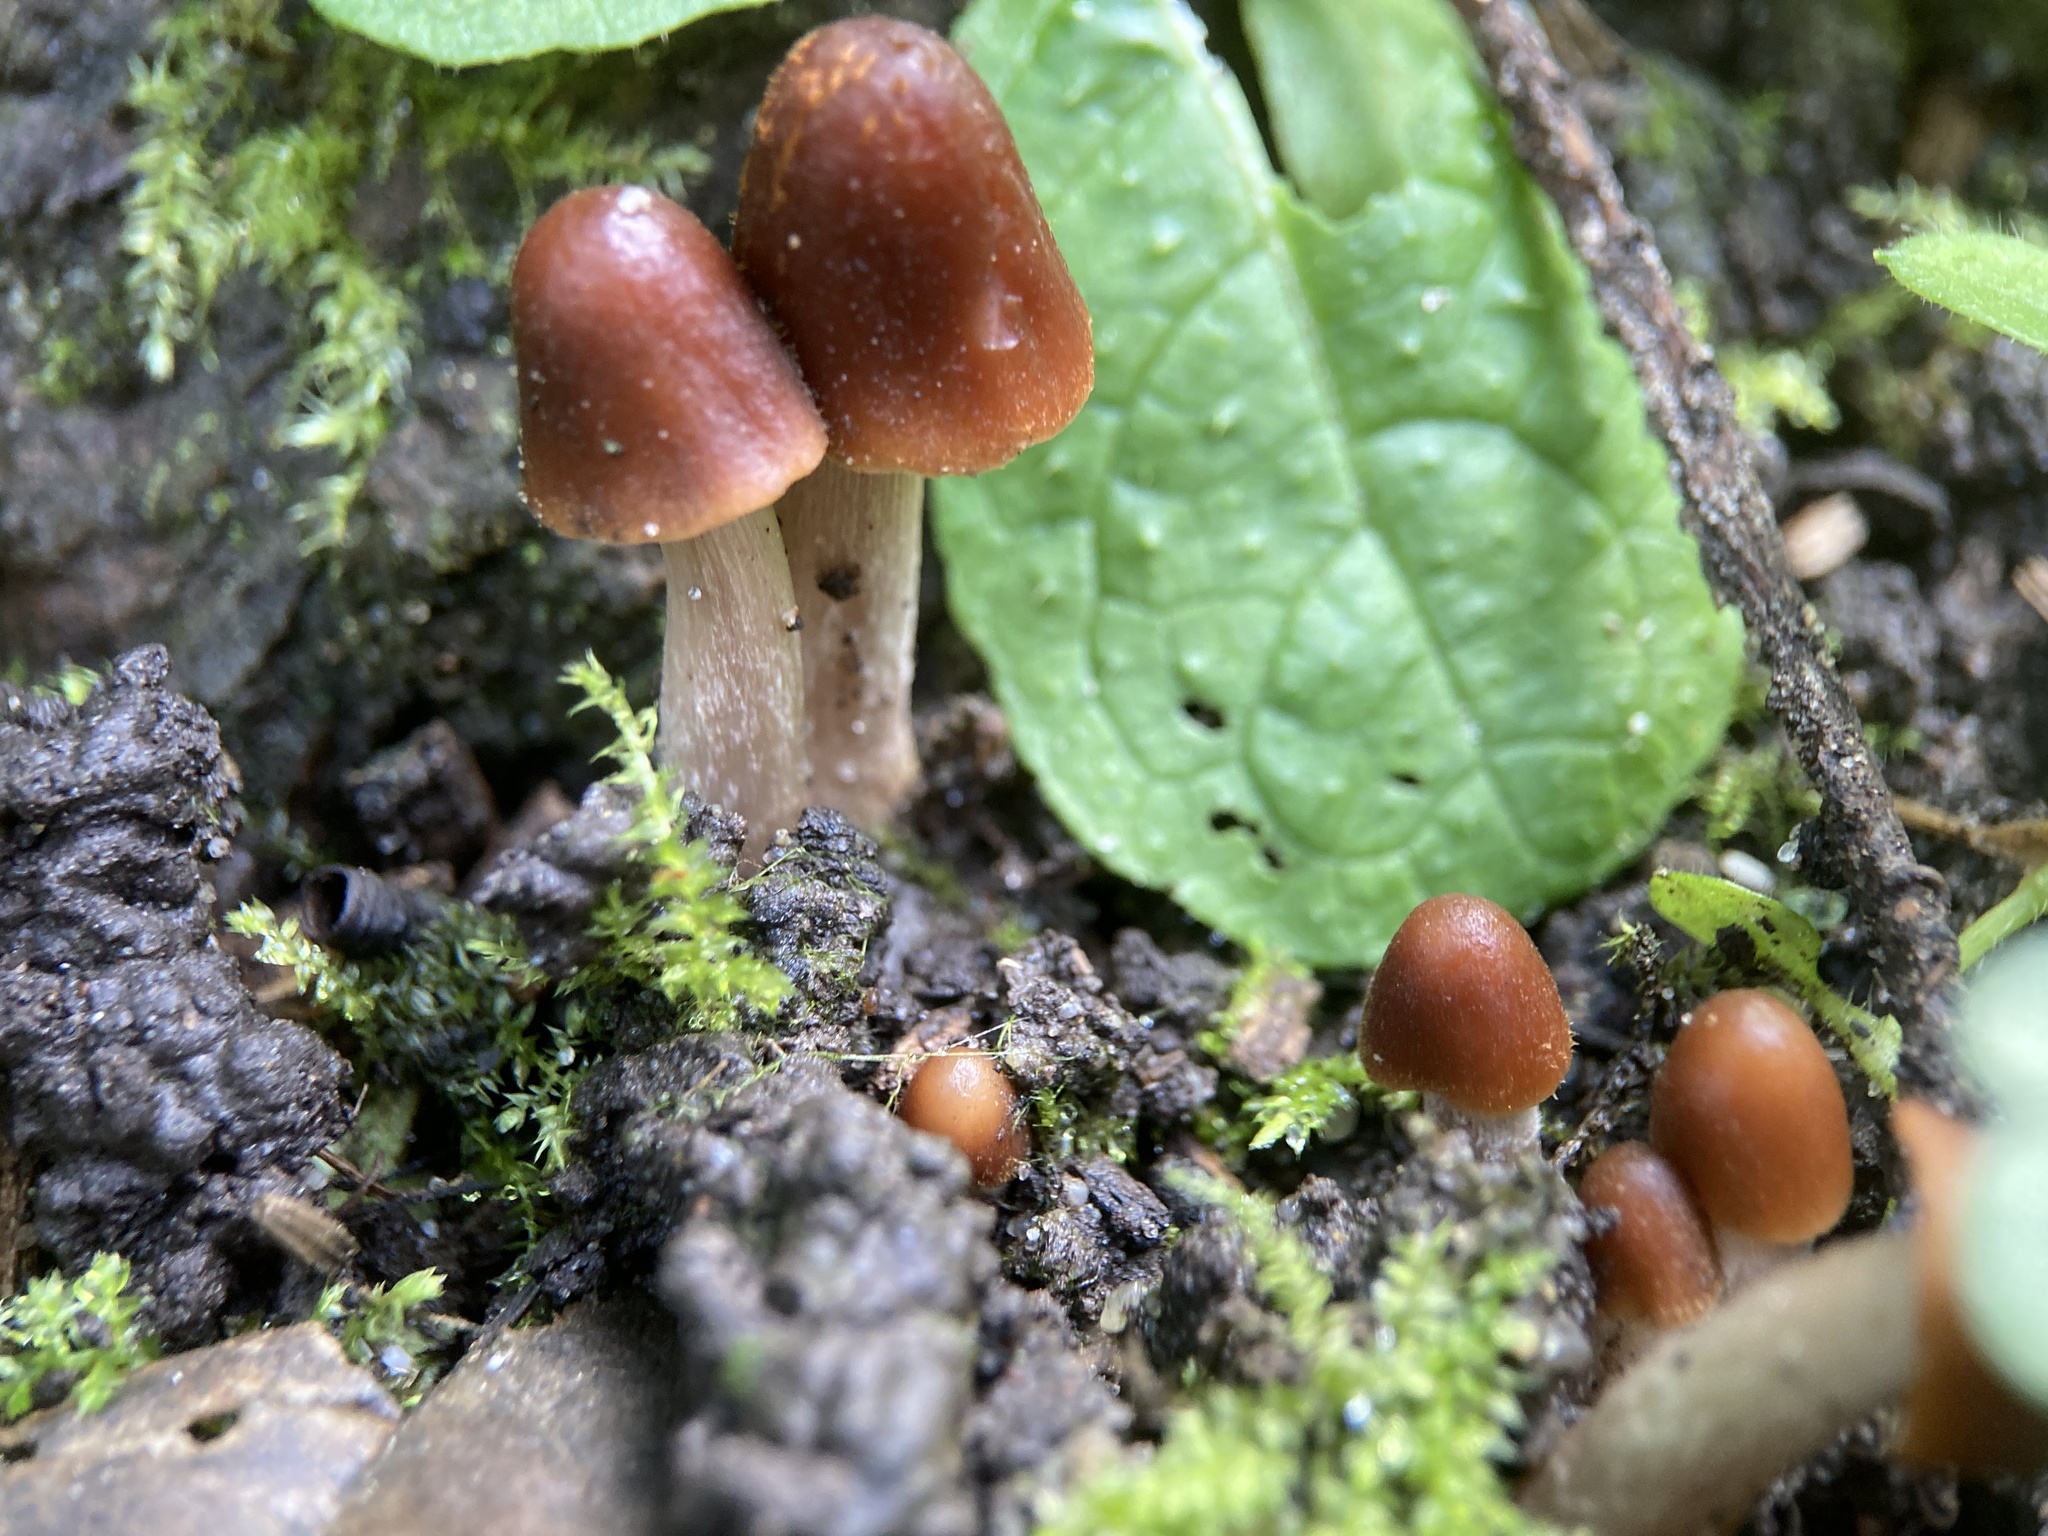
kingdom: Fungi
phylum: Basidiomycota
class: Agaricomycetes
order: Agaricales
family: Psathyrellaceae
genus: Parasola
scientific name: Parasola conopilea
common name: Conical brittlestem
